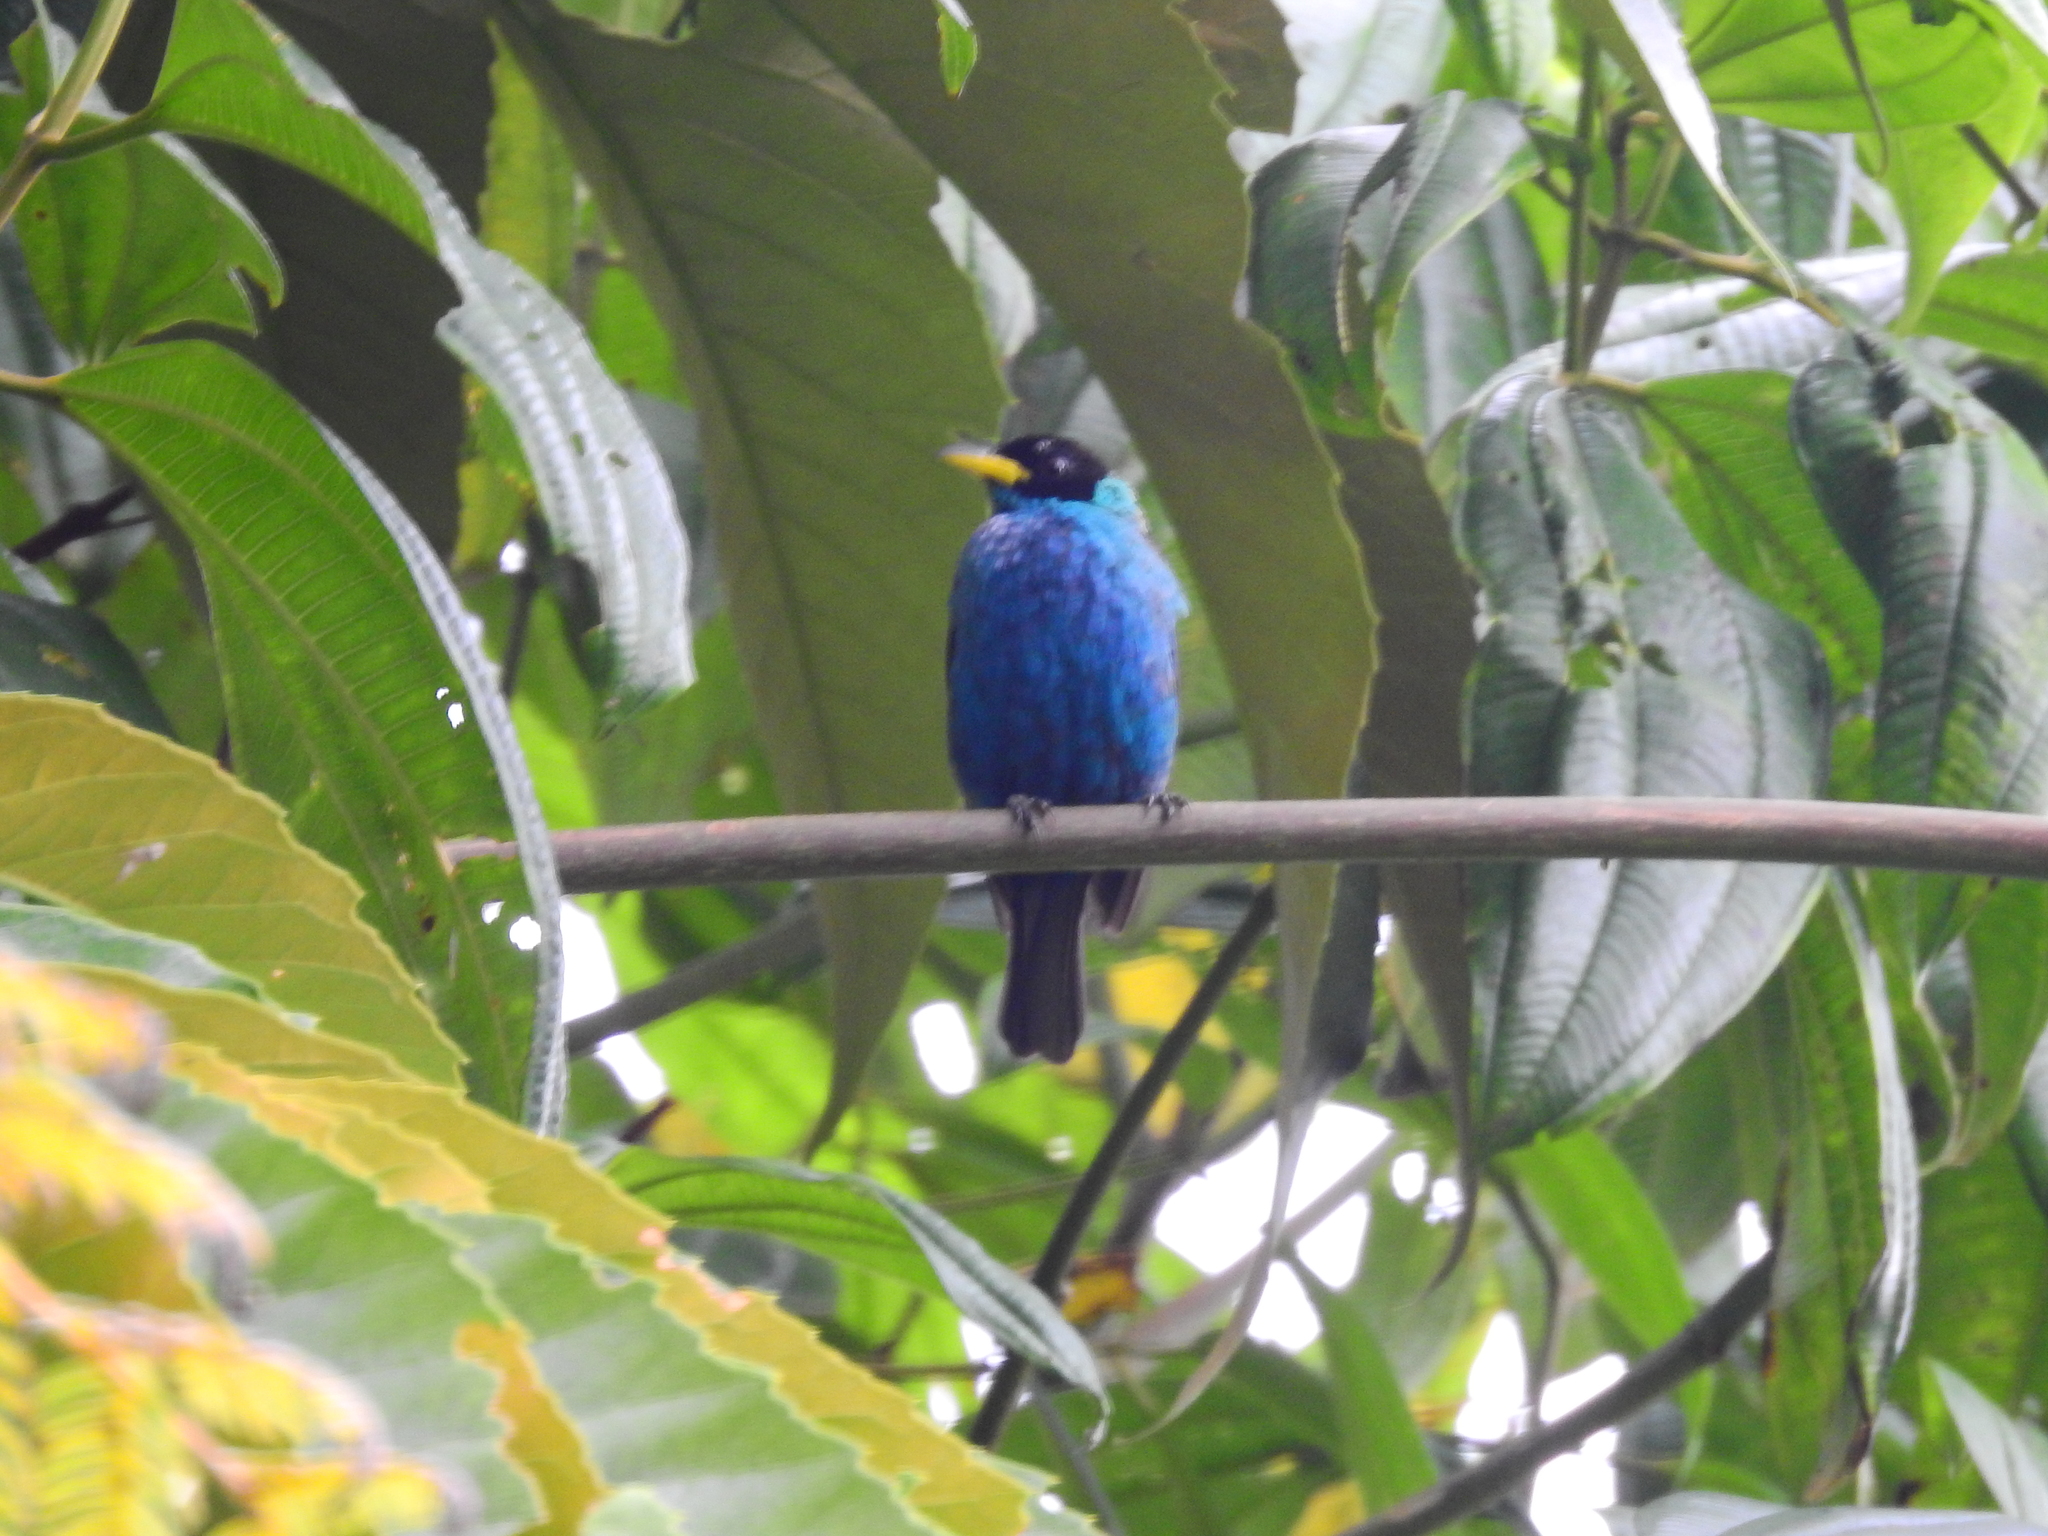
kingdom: Animalia
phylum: Chordata
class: Aves
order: Passeriformes
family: Thraupidae
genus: Chlorophanes
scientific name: Chlorophanes spiza
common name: Green honeycreeper
